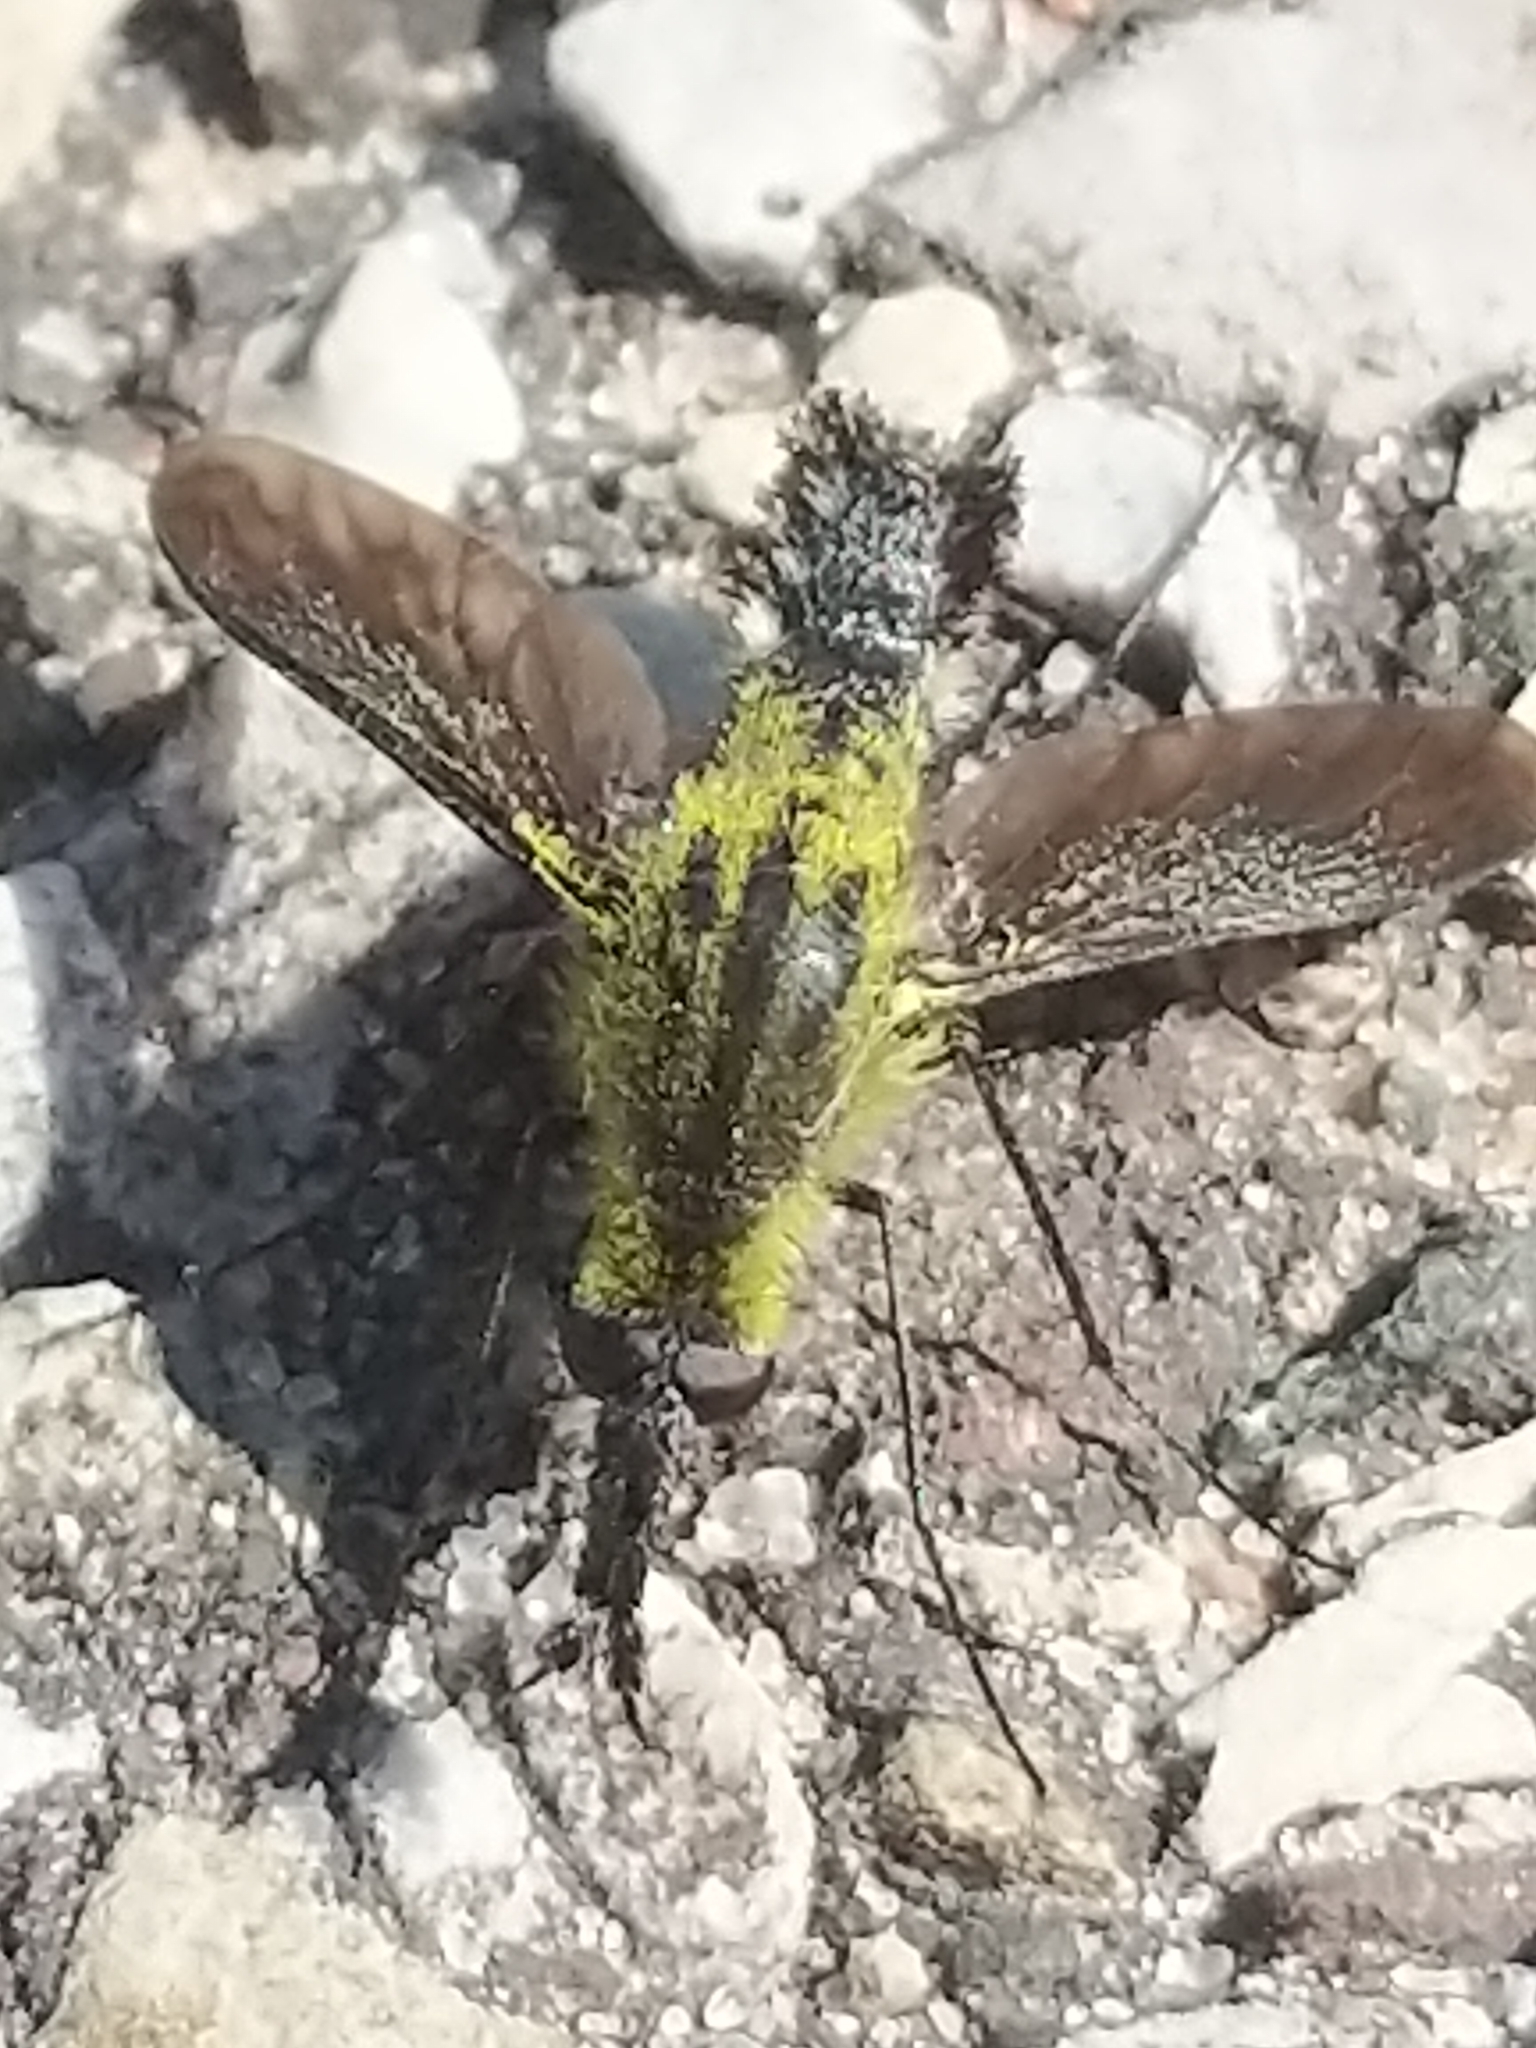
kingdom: Animalia
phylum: Arthropoda
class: Insecta
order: Diptera
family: Bombyliidae
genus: Lepidophora
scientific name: Lepidophora lutea
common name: Hunchback bee fly
